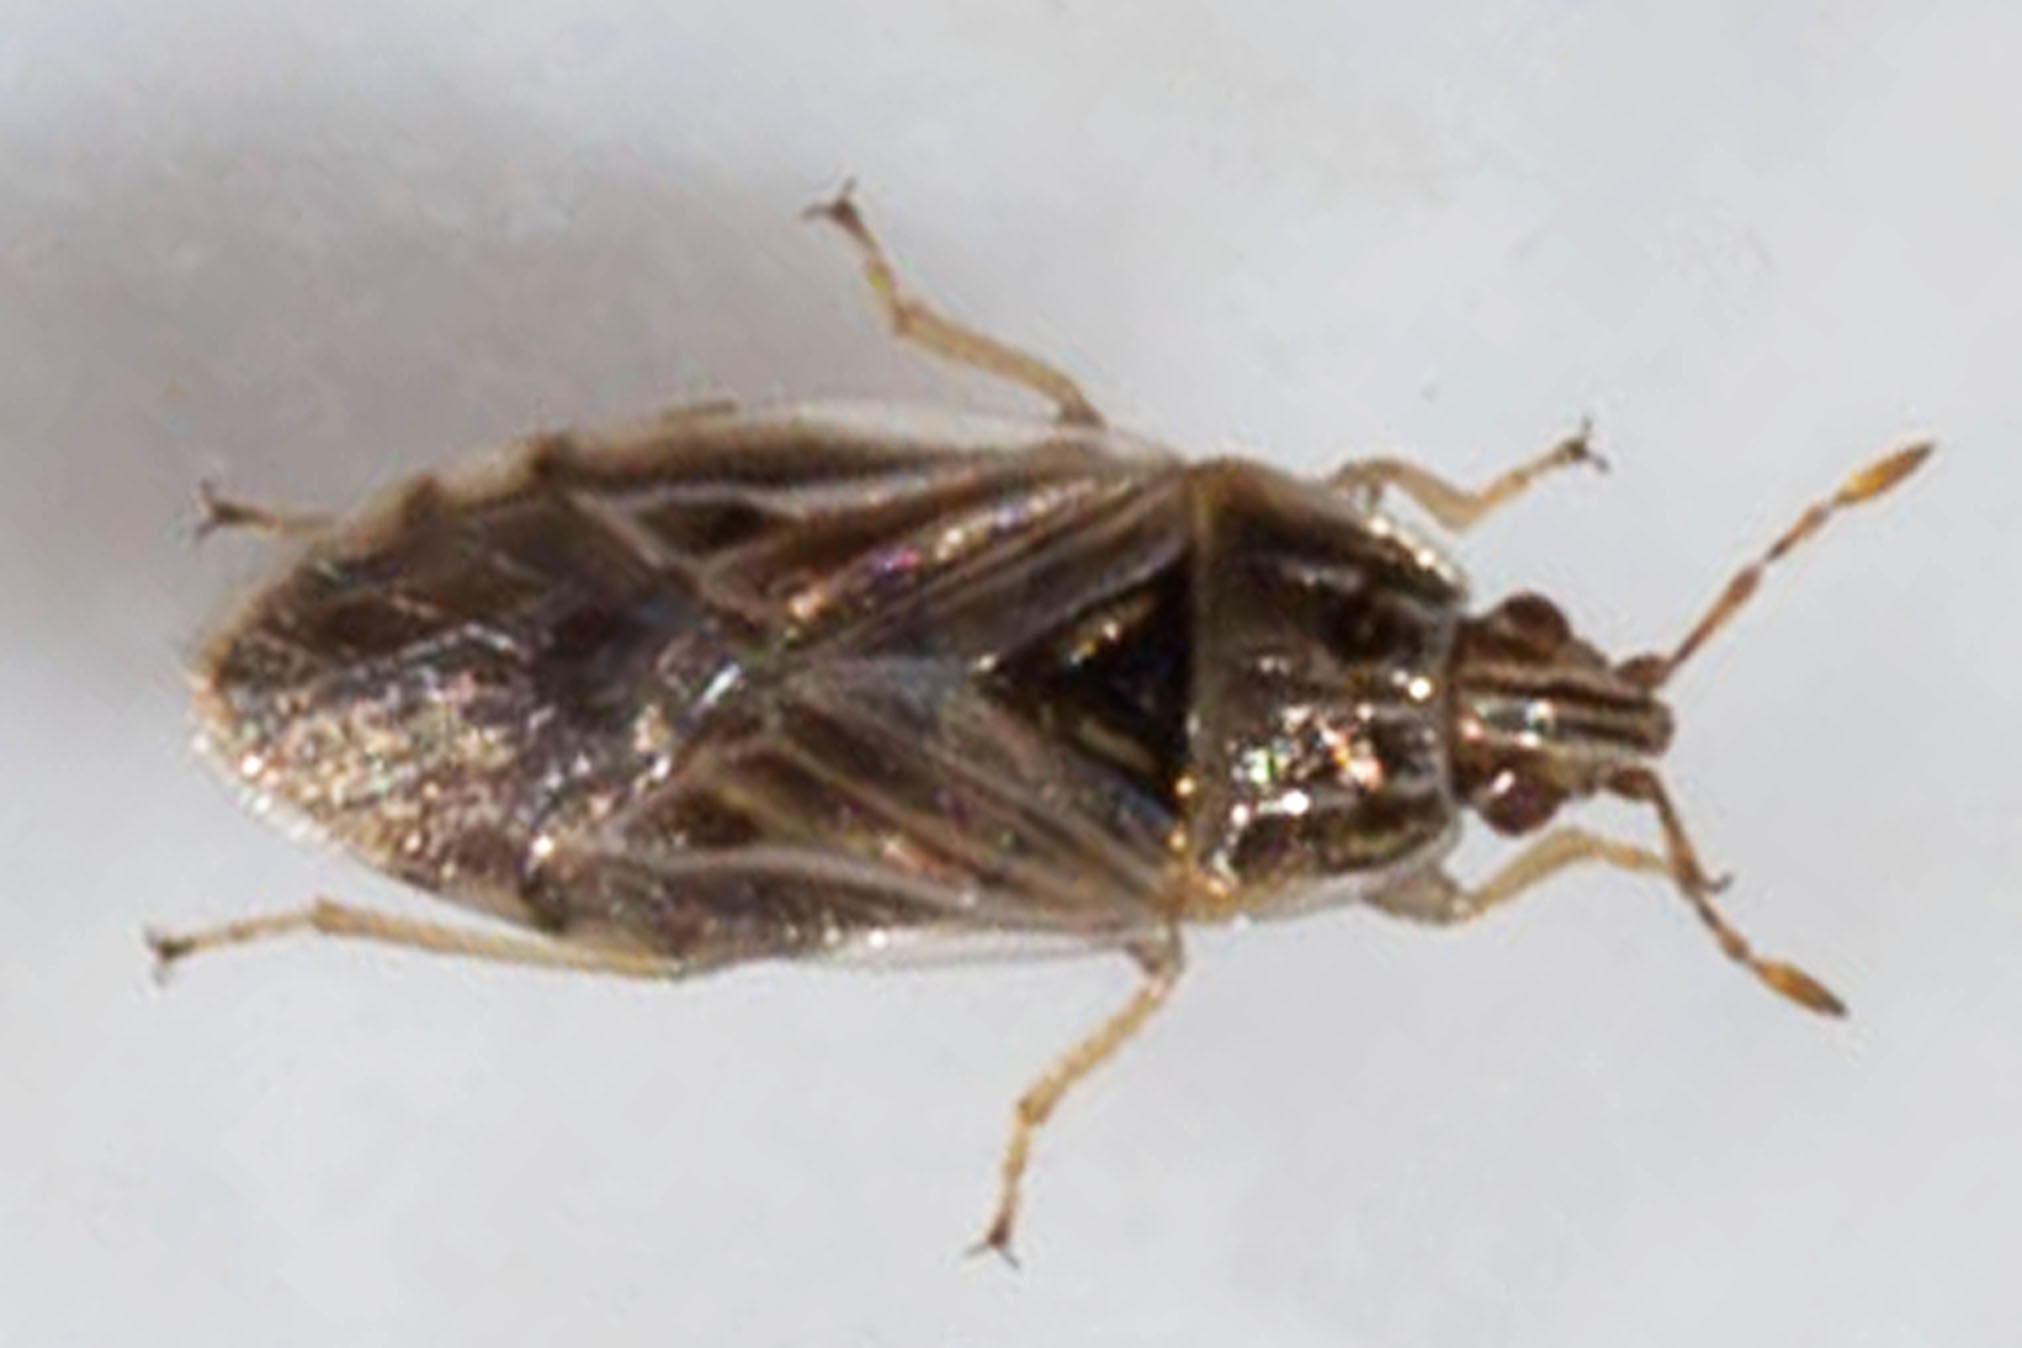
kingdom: Animalia
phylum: Arthropoda
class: Insecta
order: Hemiptera
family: Artheneidae
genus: Holcocranum
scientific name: Holcocranum saturejae
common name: Cattail bug
